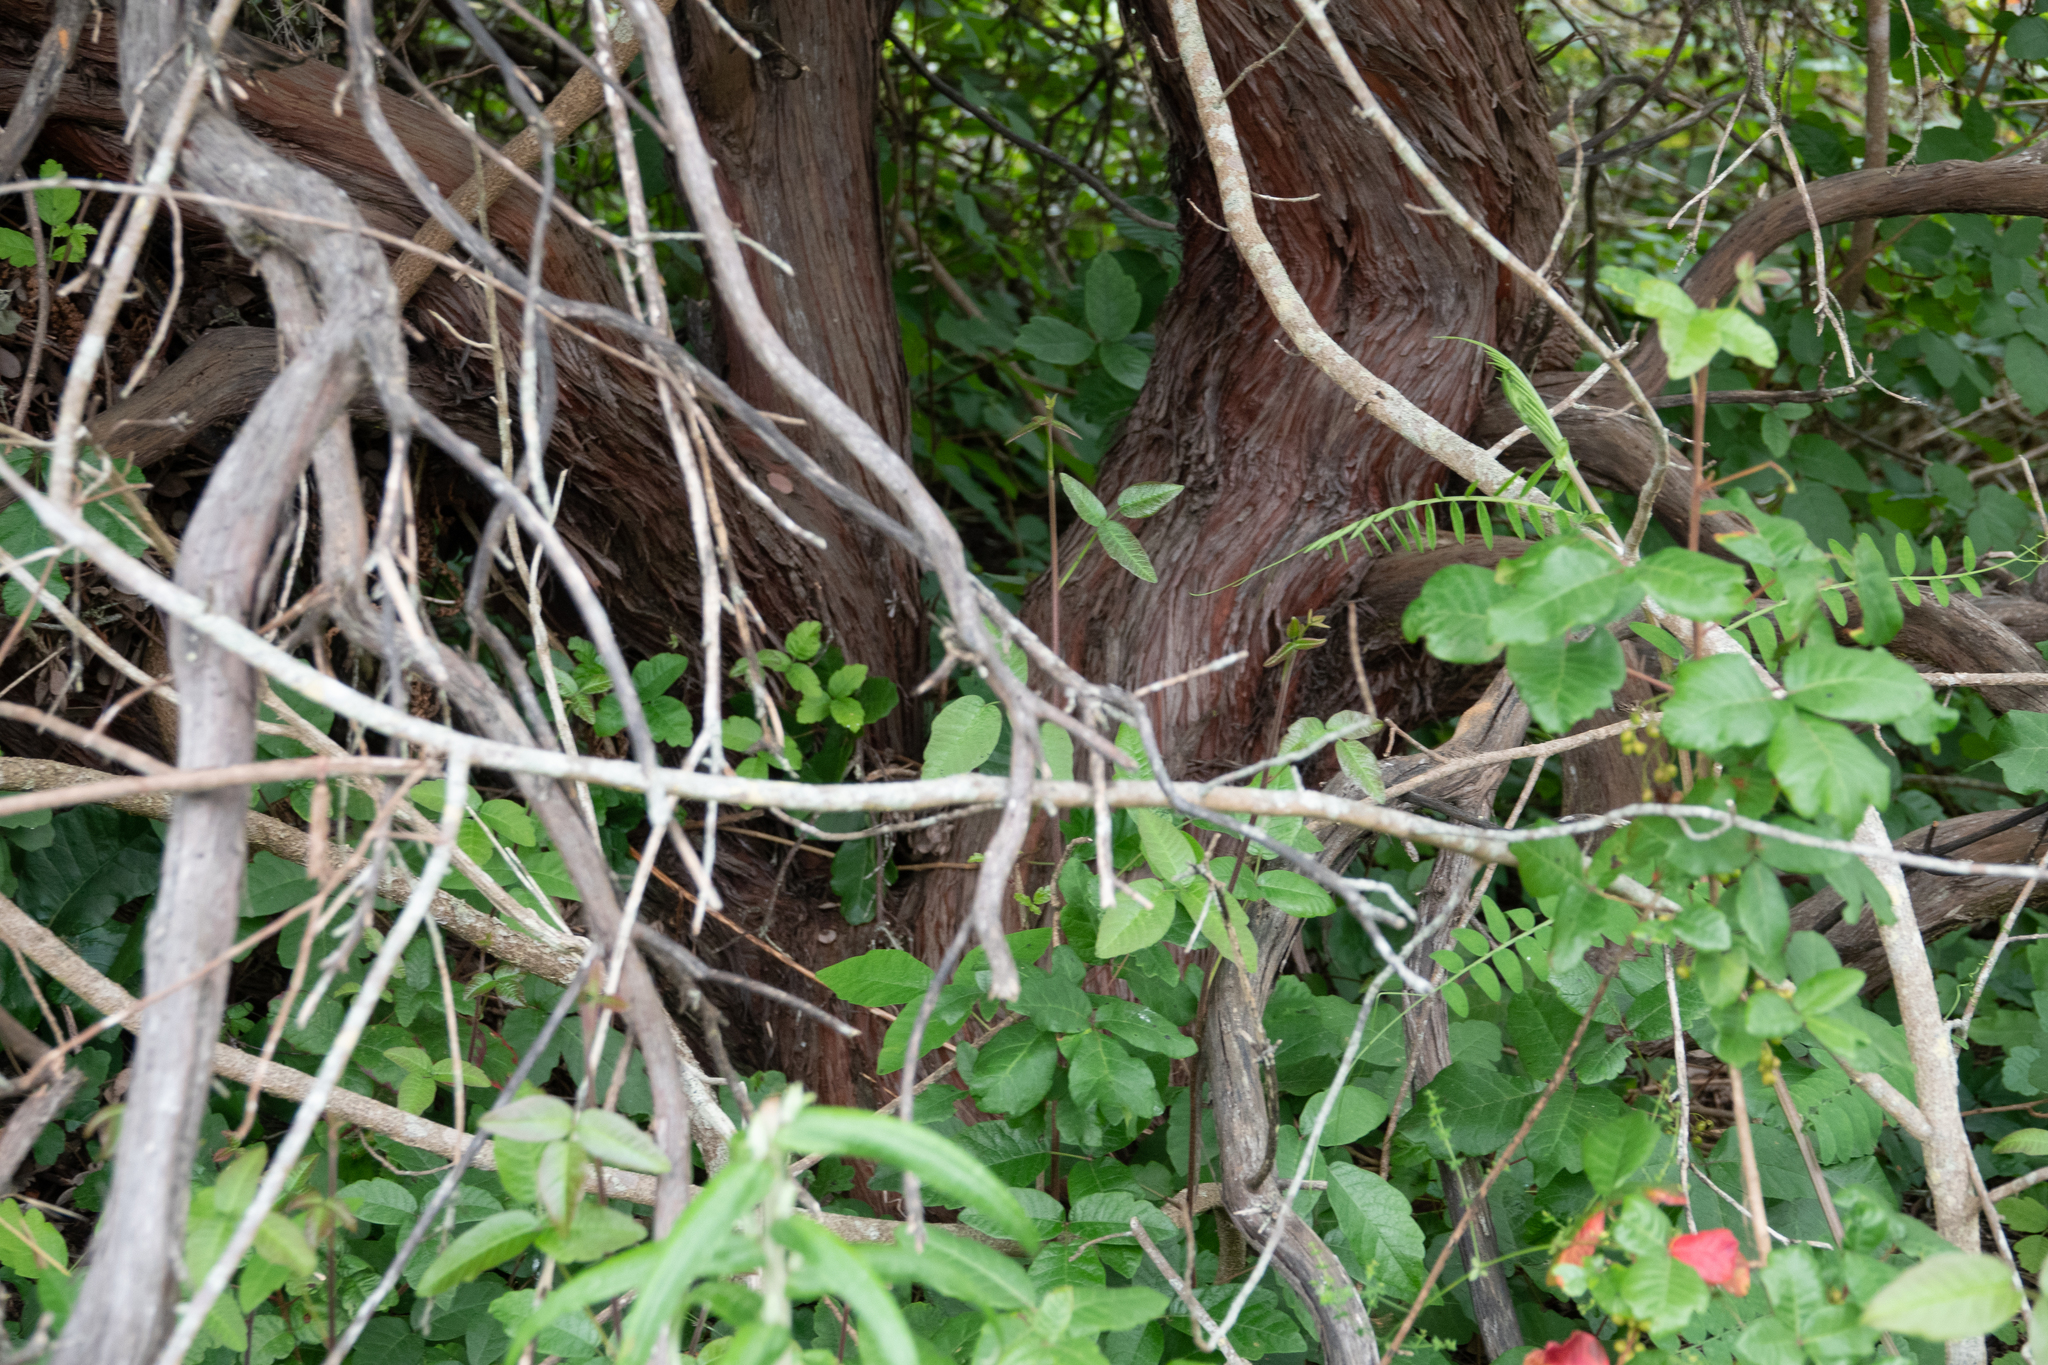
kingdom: Plantae
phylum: Tracheophyta
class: Magnoliopsida
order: Ericales
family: Ericaceae
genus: Arctostaphylos
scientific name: Arctostaphylos morroensis
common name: Morro manzanita
